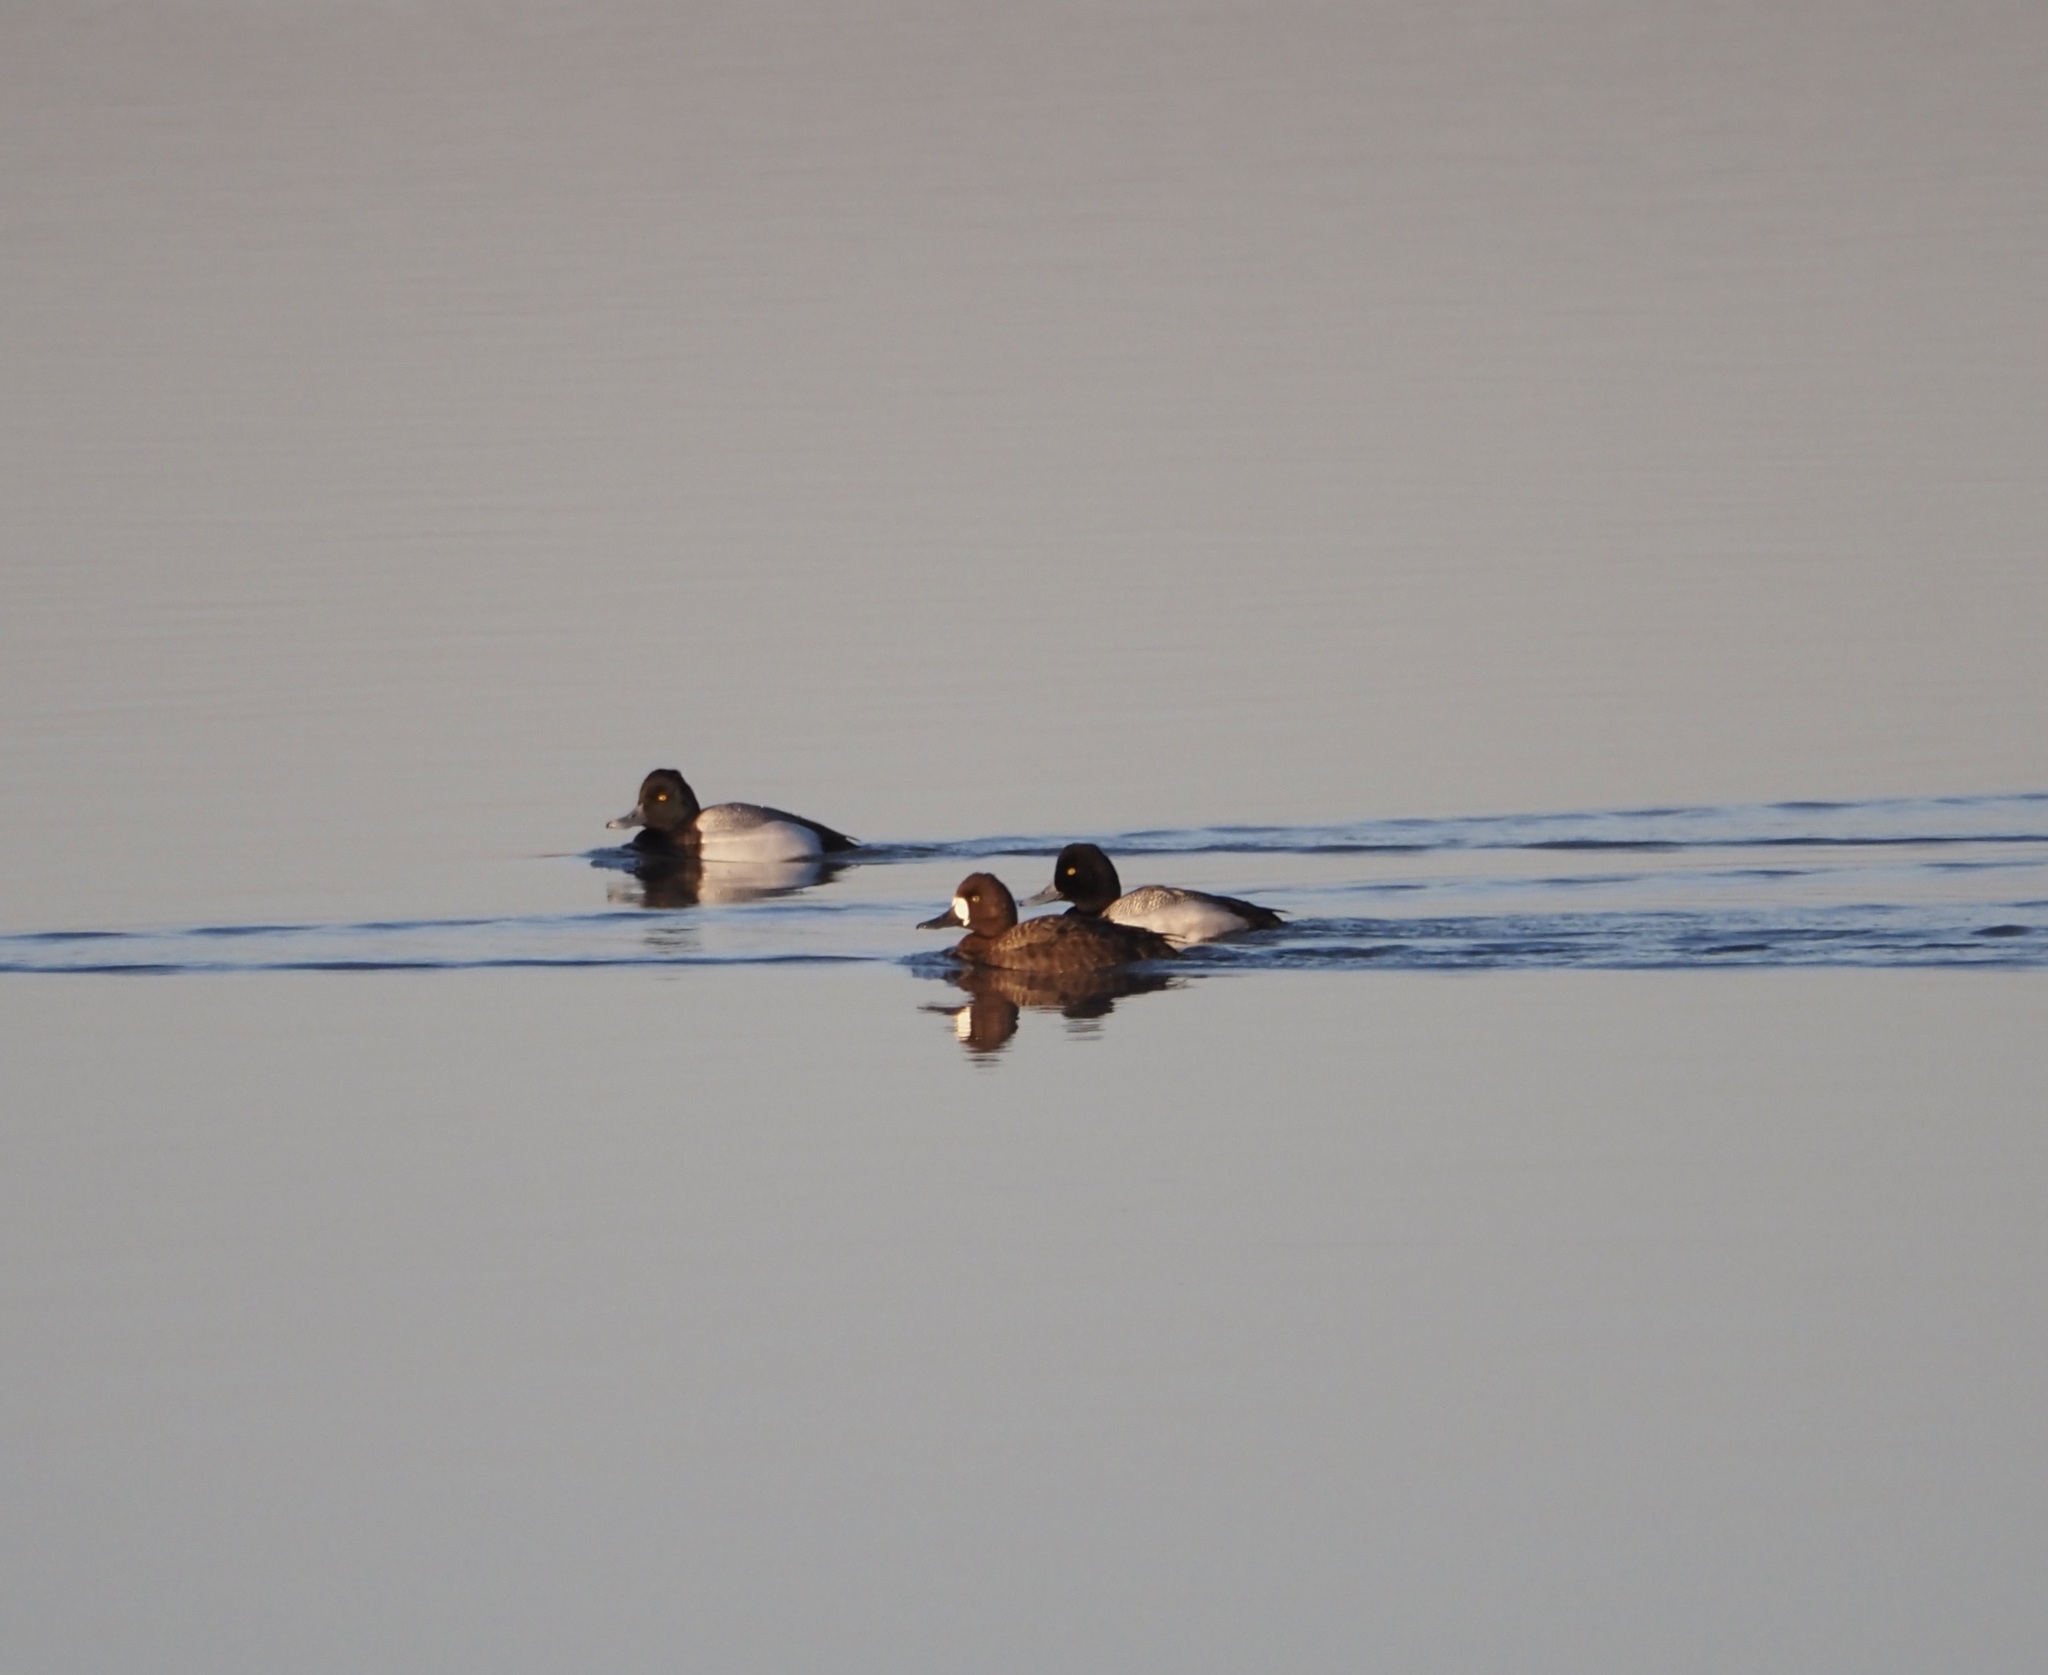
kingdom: Animalia
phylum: Chordata
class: Aves
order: Anseriformes
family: Anatidae
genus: Aythya
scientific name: Aythya affinis
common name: Lesser scaup
